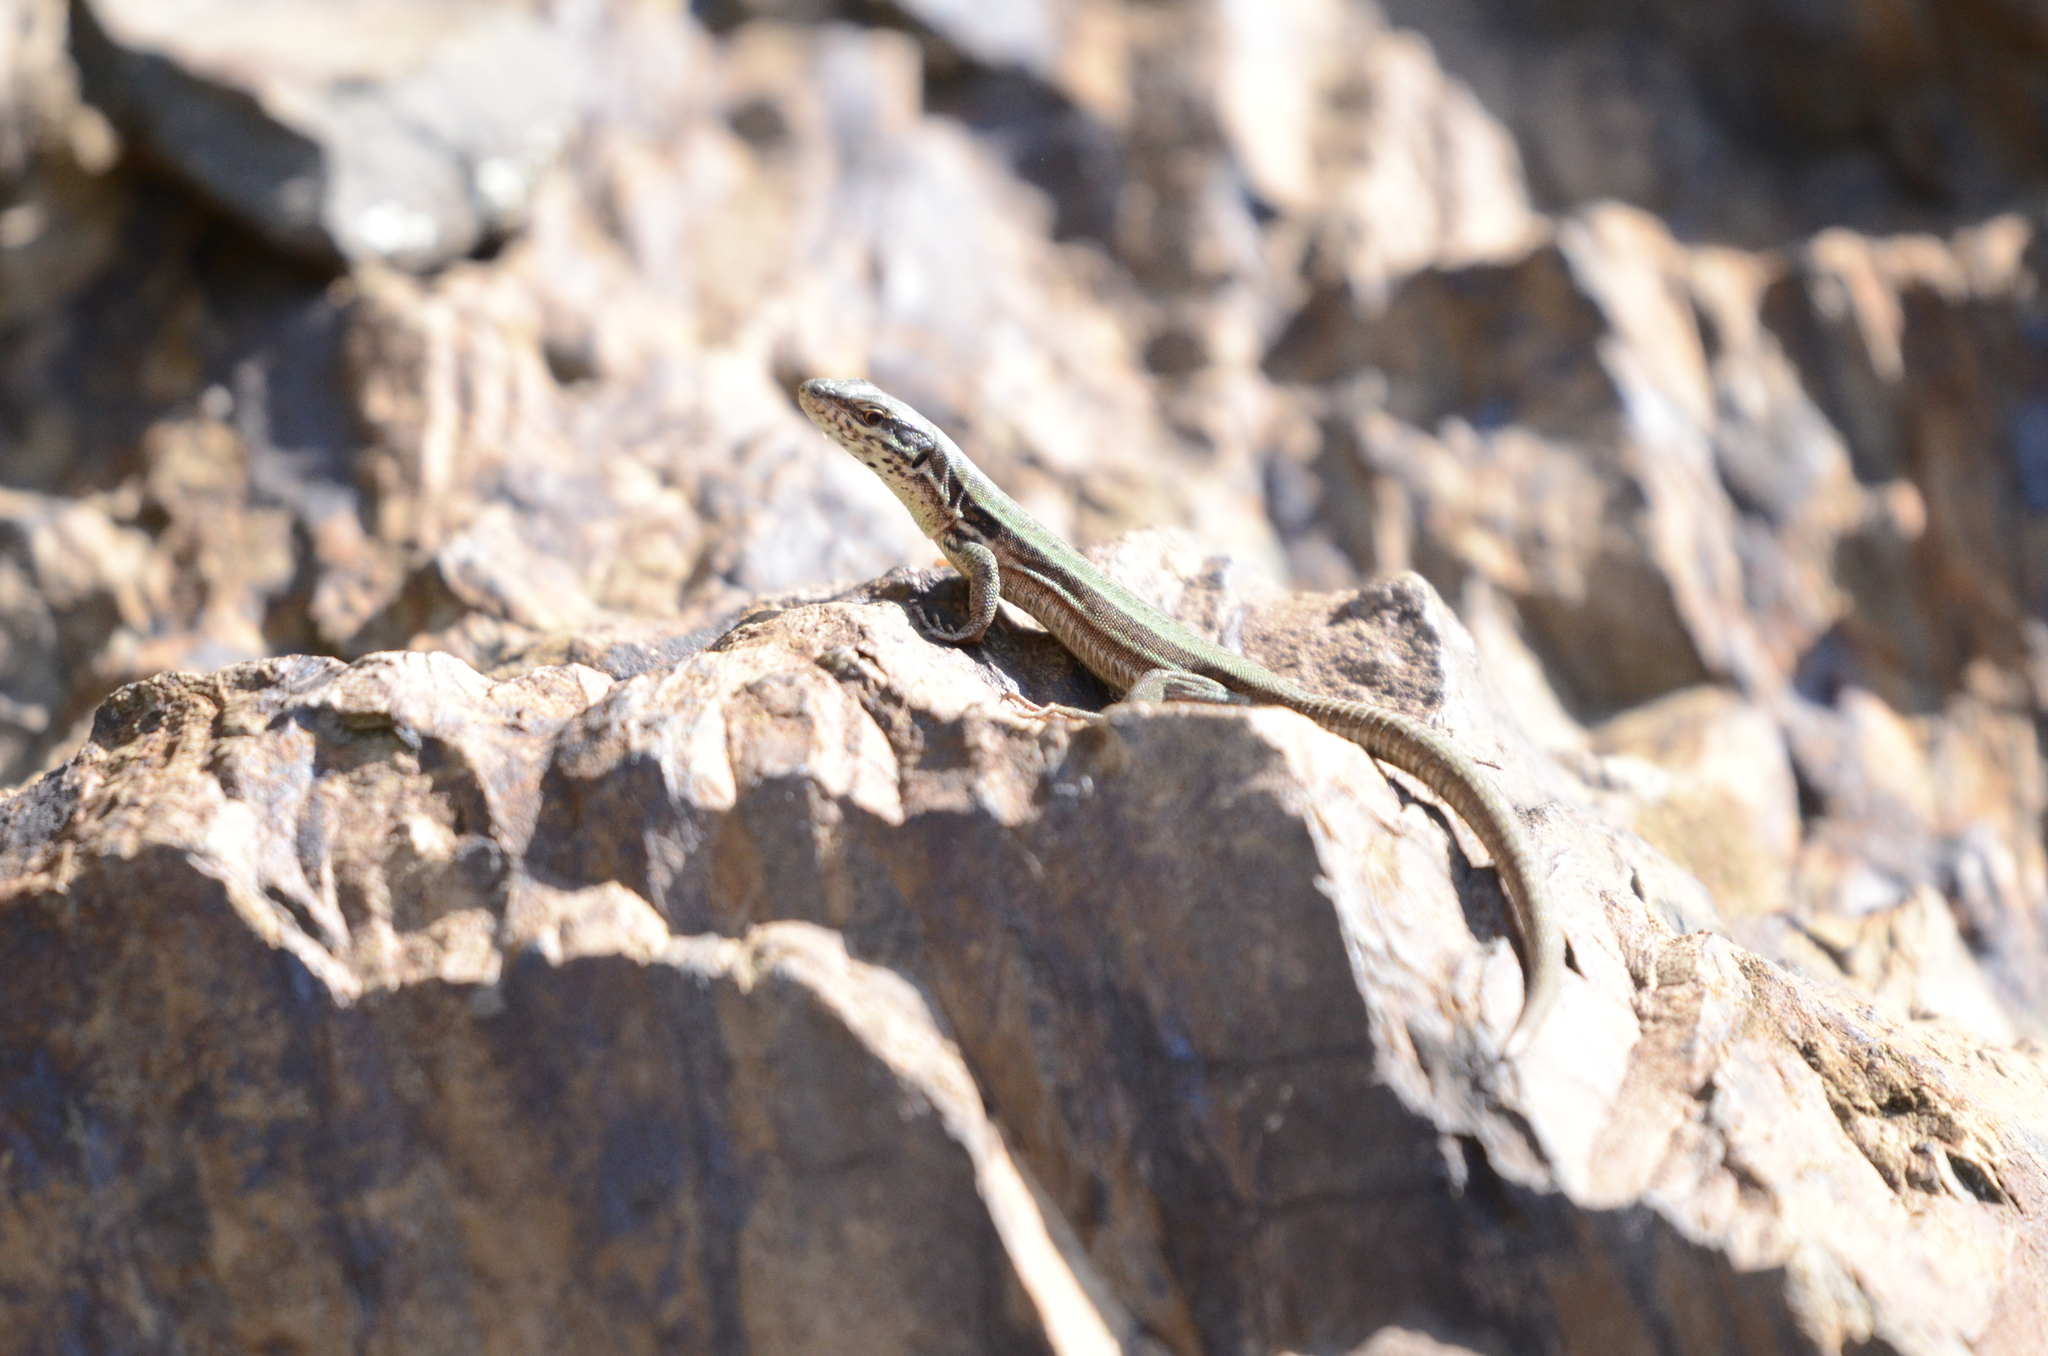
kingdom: Animalia
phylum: Chordata
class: Squamata
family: Lacertidae
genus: Podarcis
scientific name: Podarcis muralis
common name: Common wall lizard
